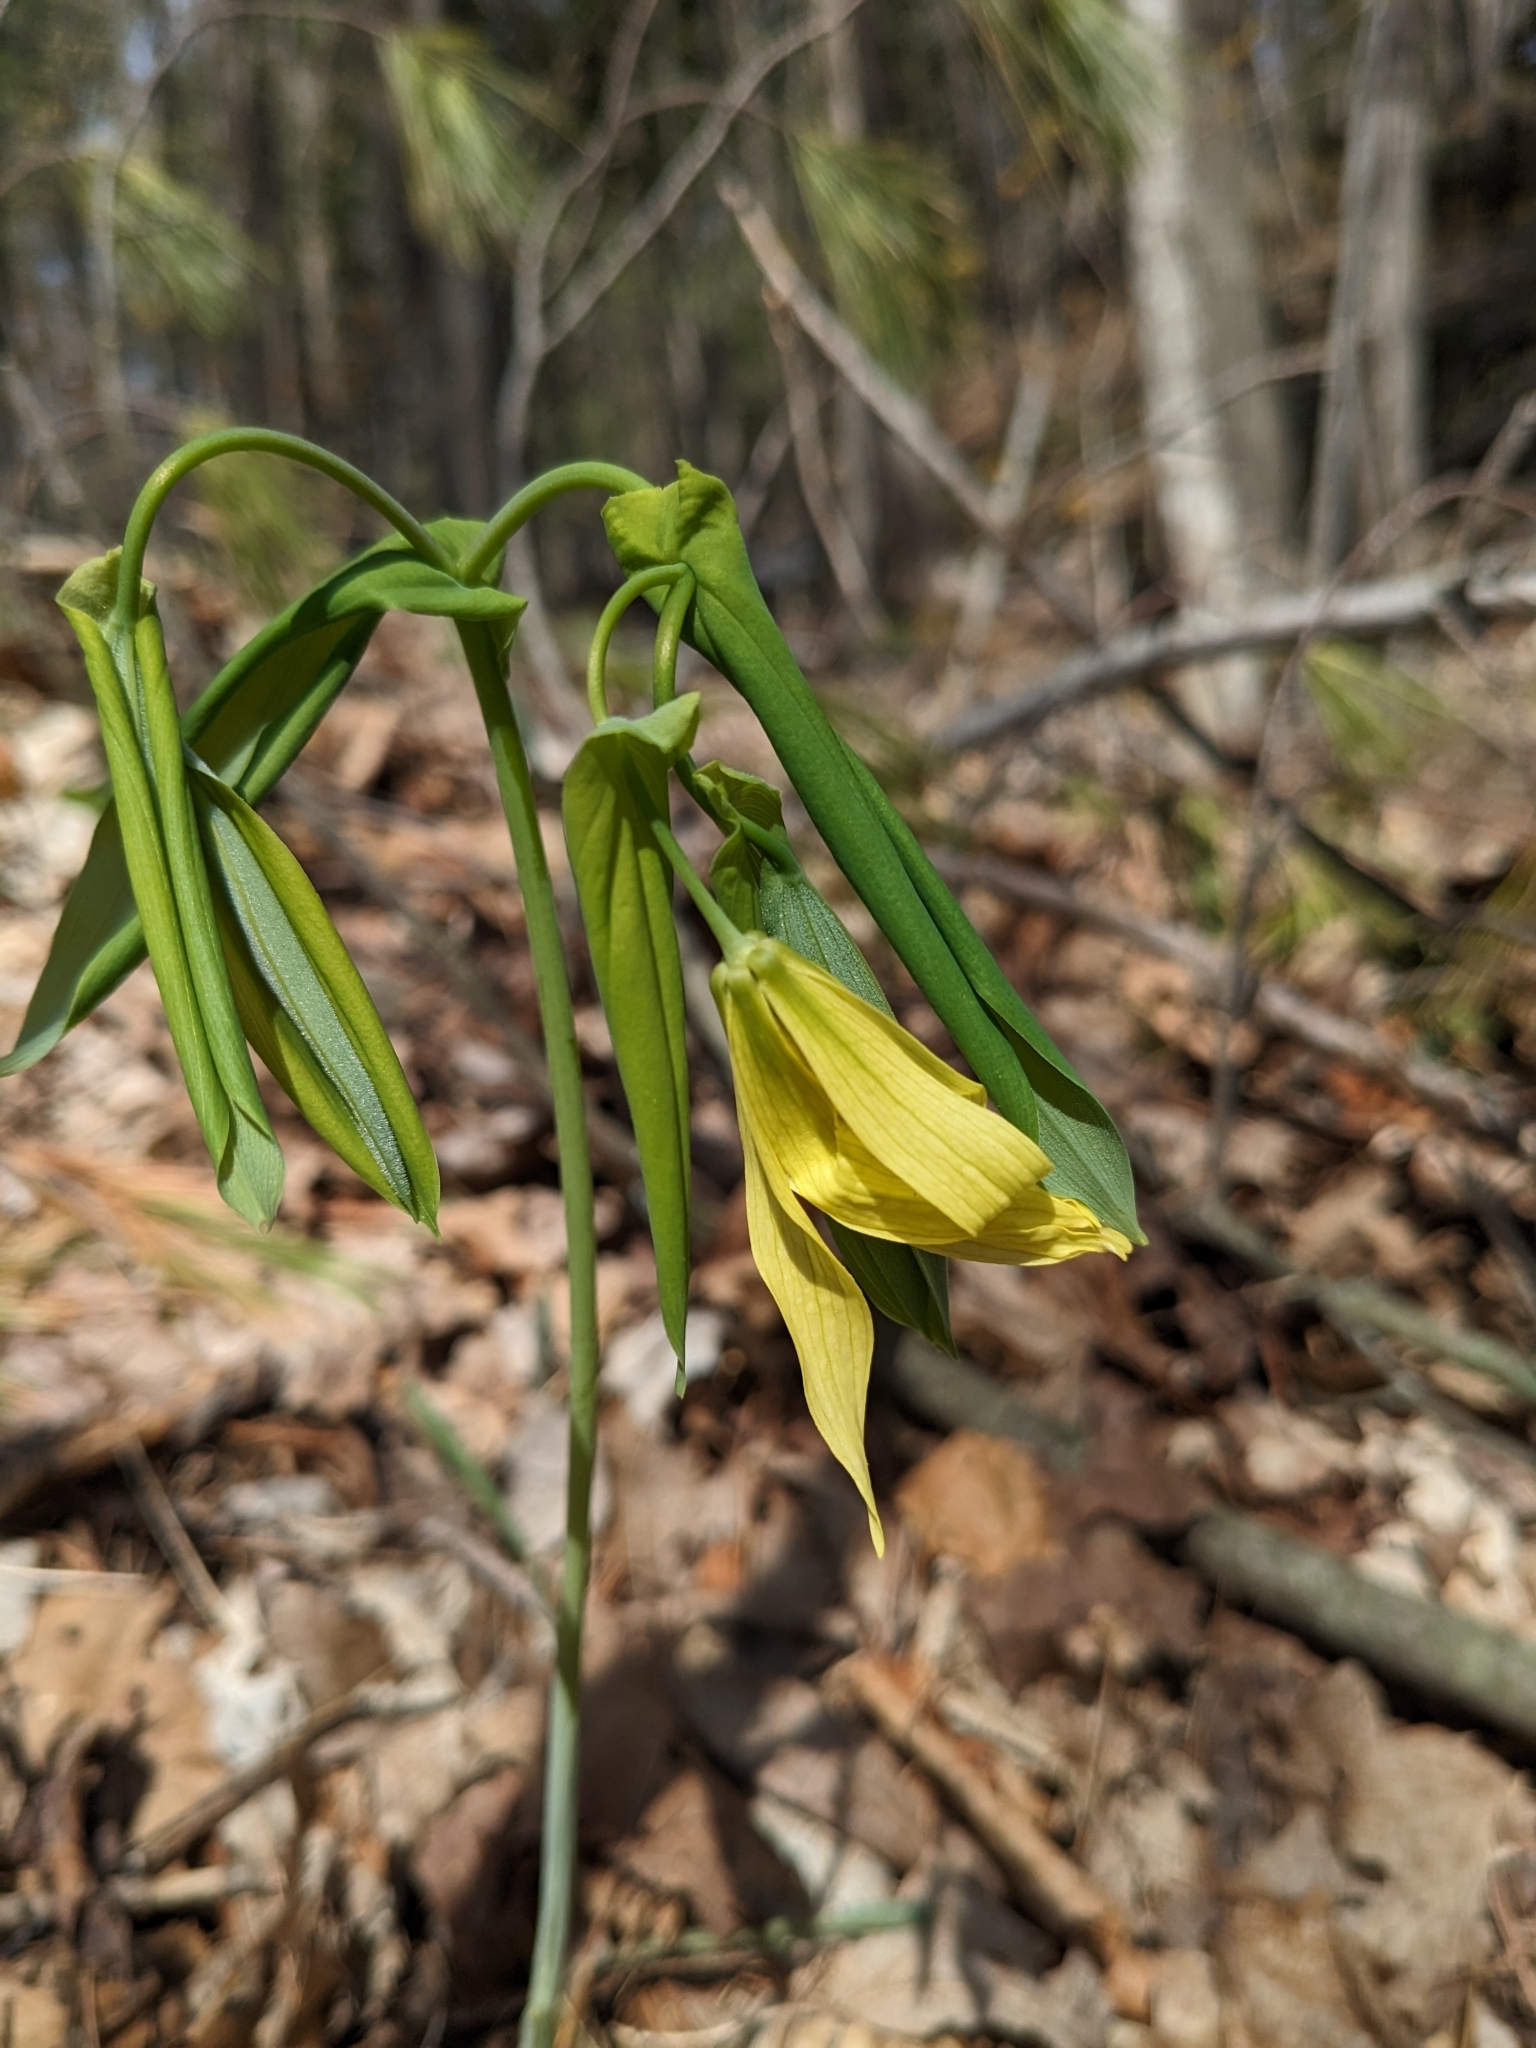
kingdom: Plantae
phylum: Tracheophyta
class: Liliopsida
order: Liliales
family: Colchicaceae
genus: Uvularia
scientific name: Uvularia grandiflora
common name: Bellwort
